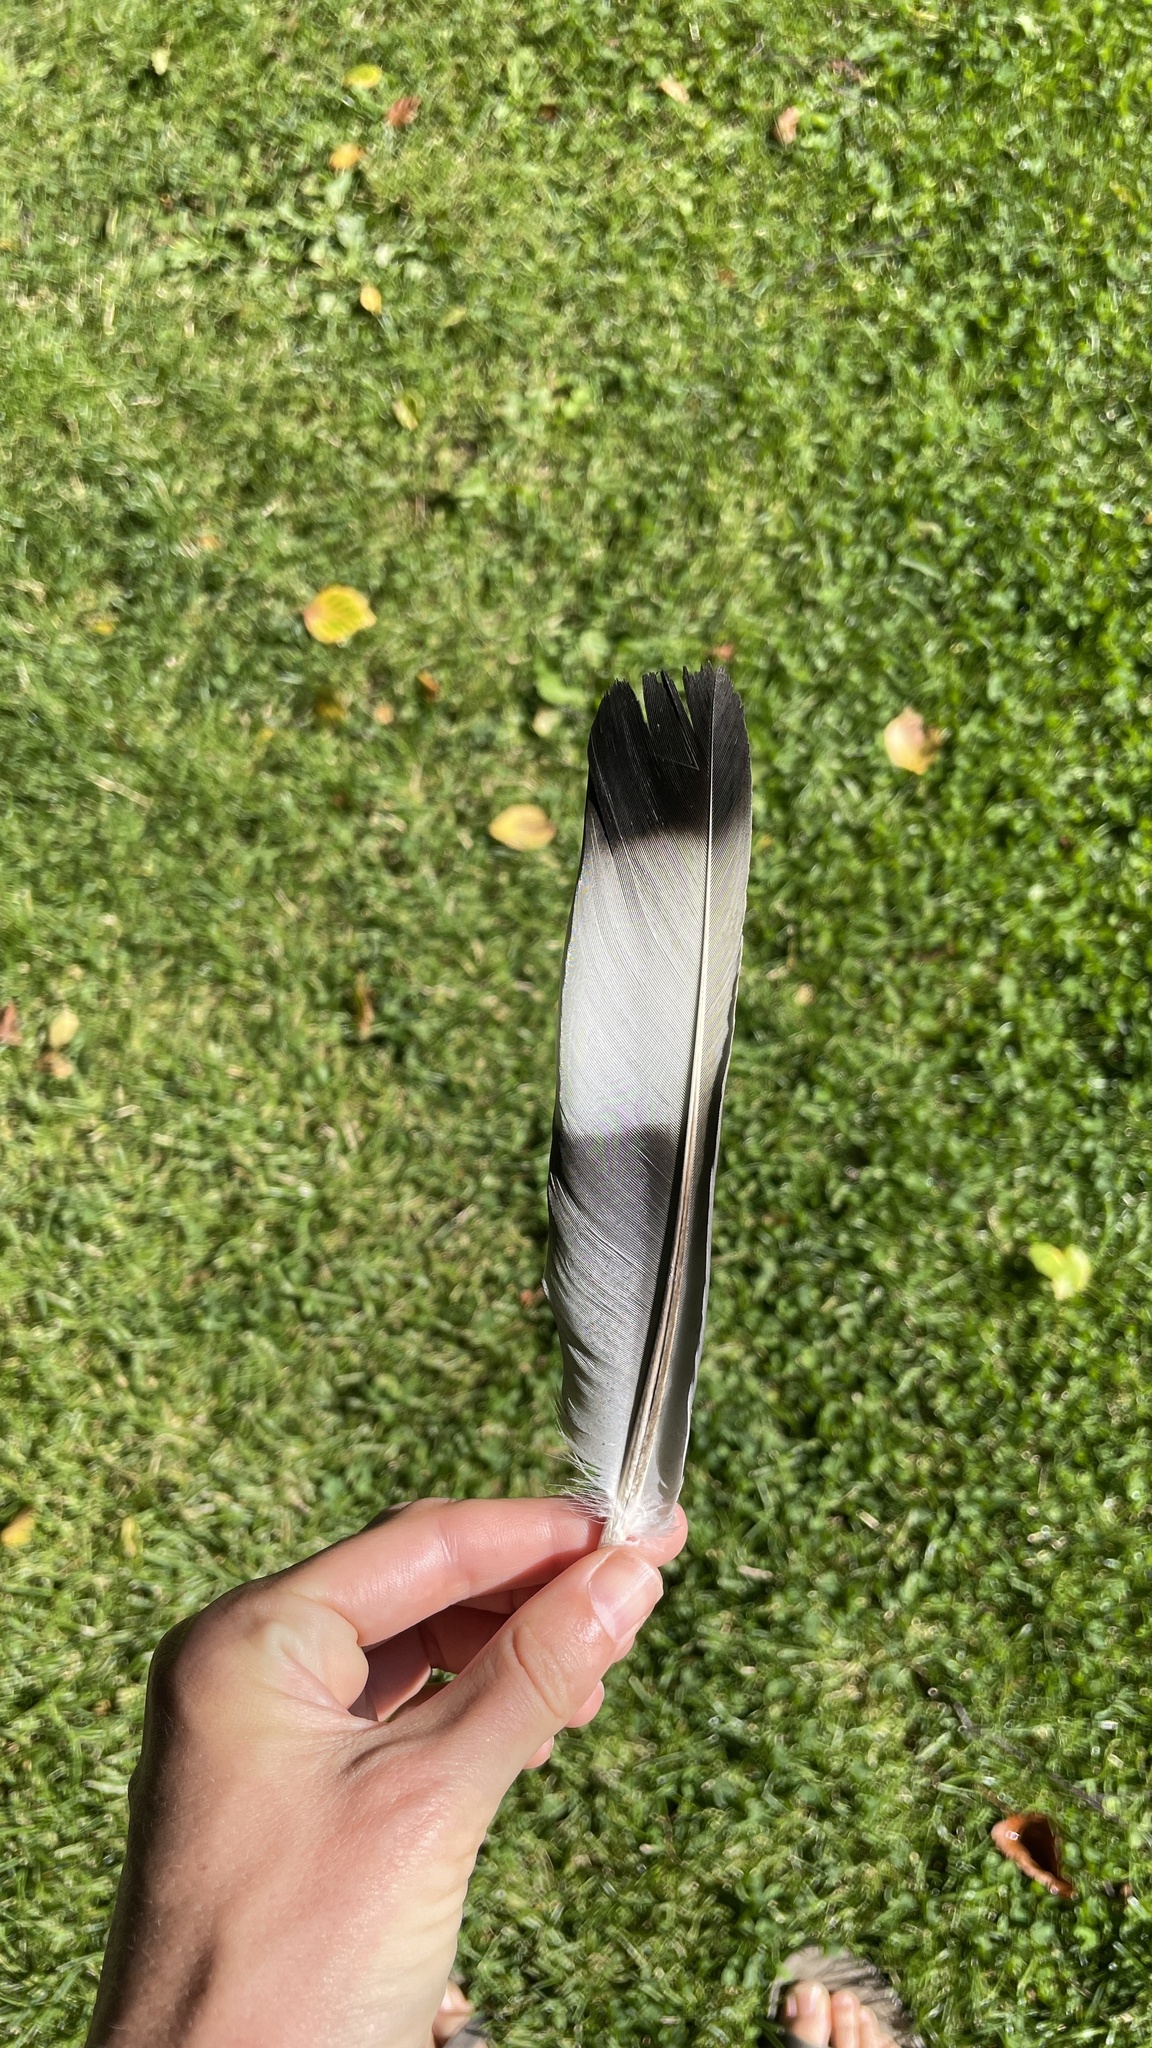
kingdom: Animalia
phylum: Chordata
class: Aves
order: Columbiformes
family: Columbidae
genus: Columba
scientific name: Columba palumbus
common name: Common wood pigeon
